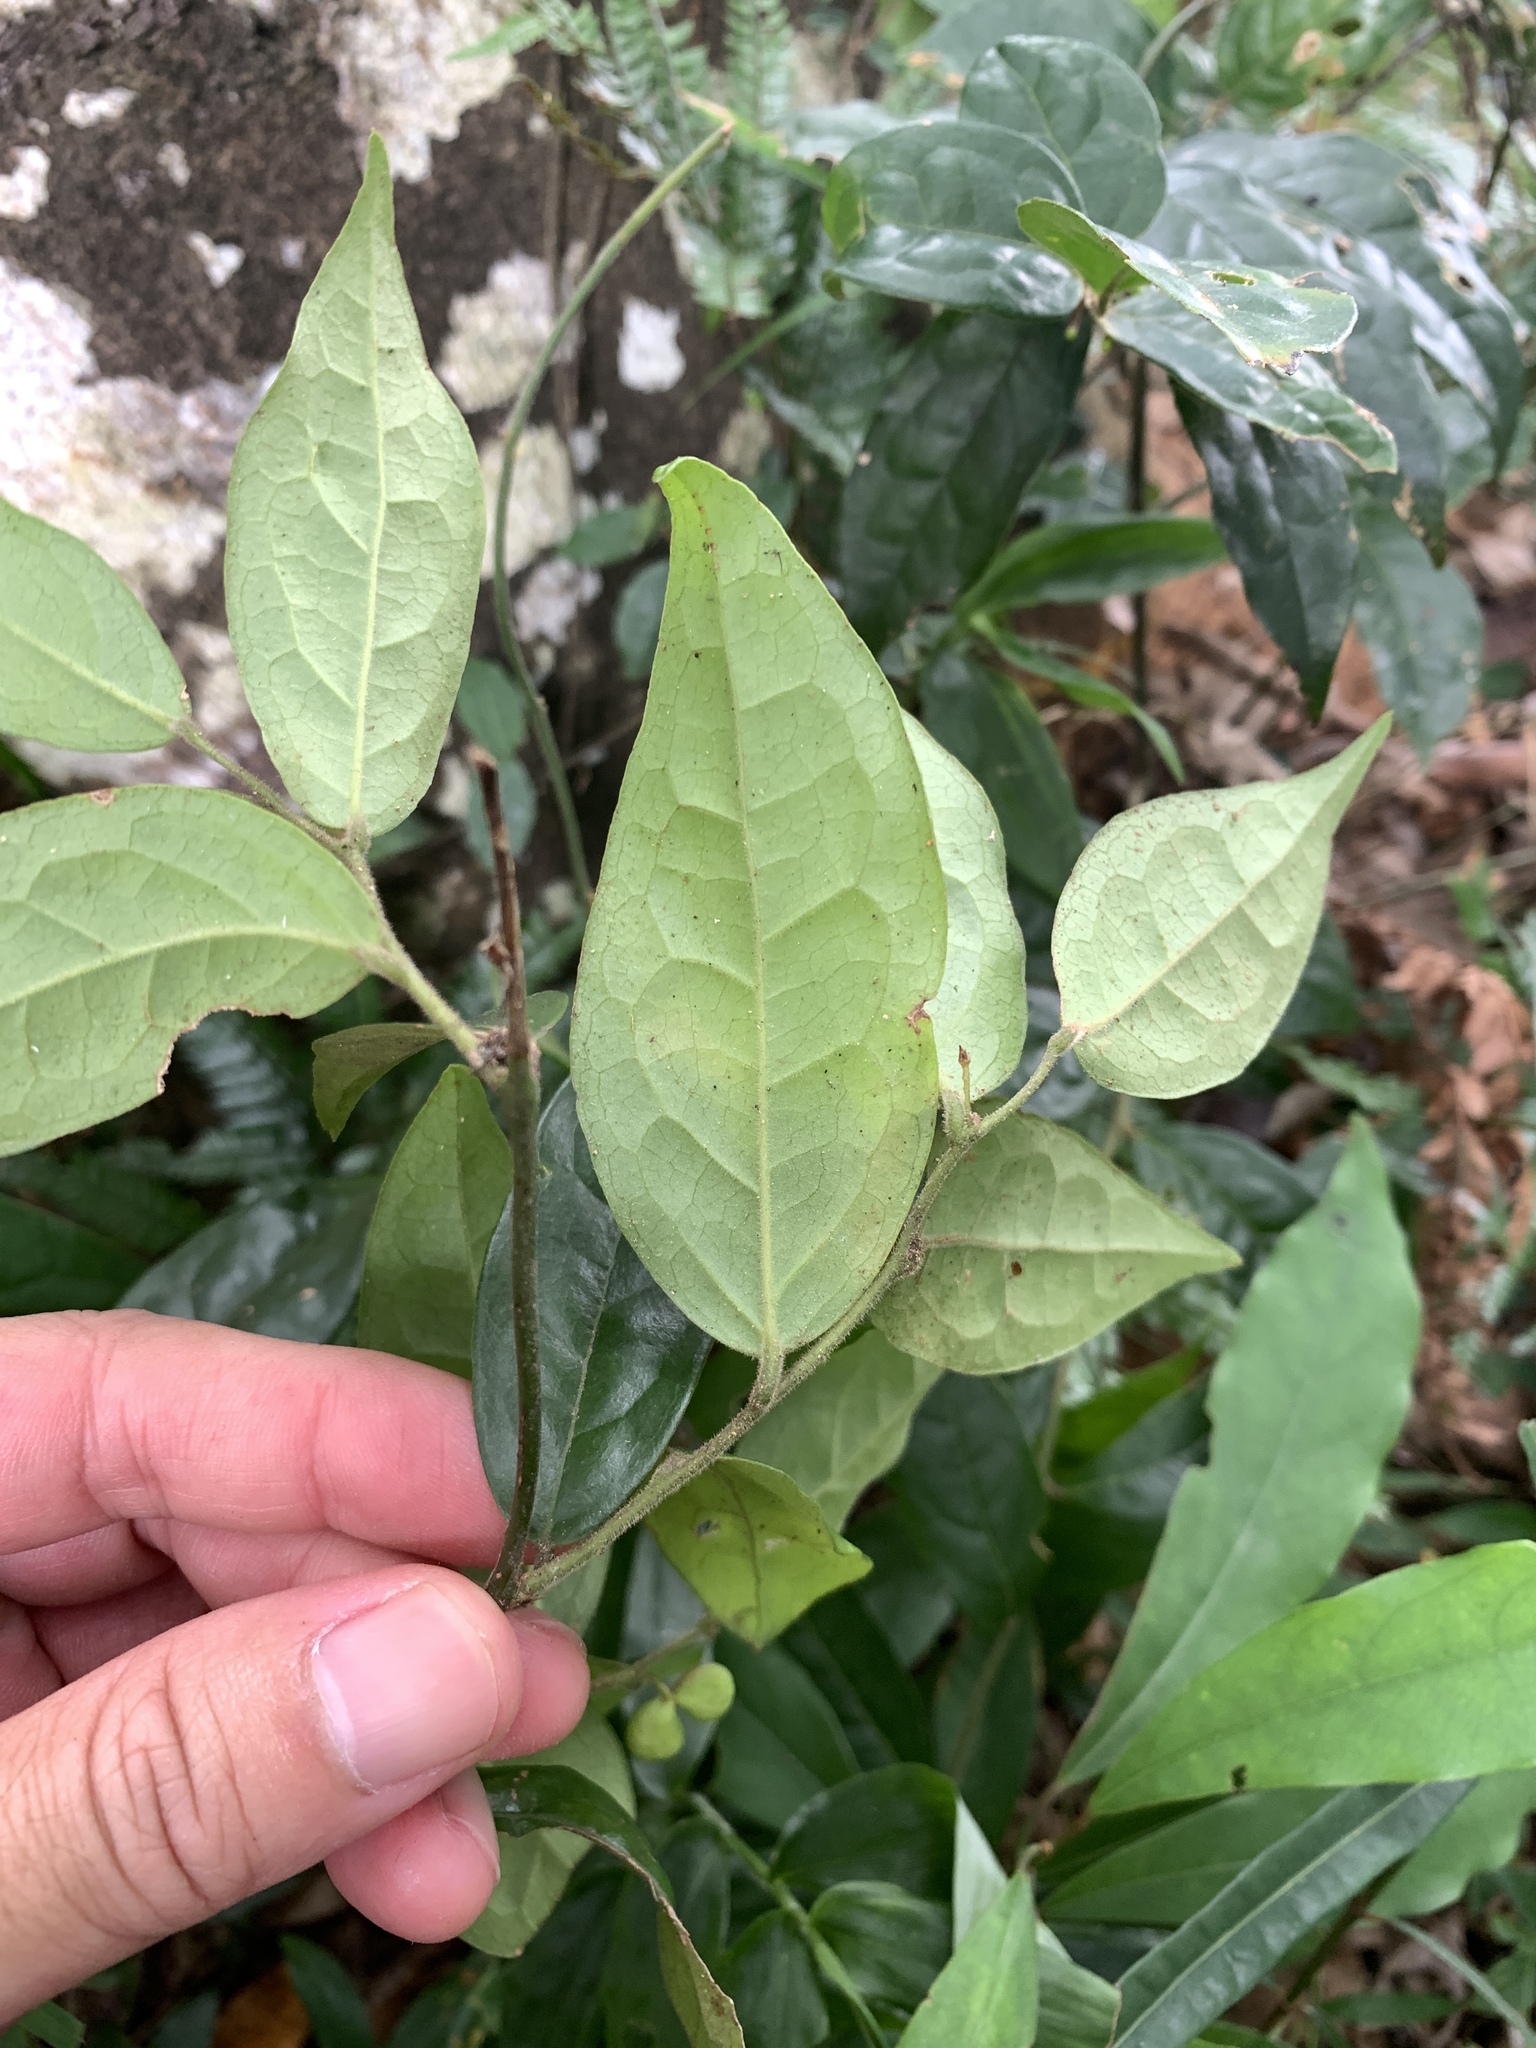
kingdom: Plantae
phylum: Tracheophyta
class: Magnoliopsida
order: Proteales
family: Sabiaceae
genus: Sabia
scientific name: Sabia swinhoei
